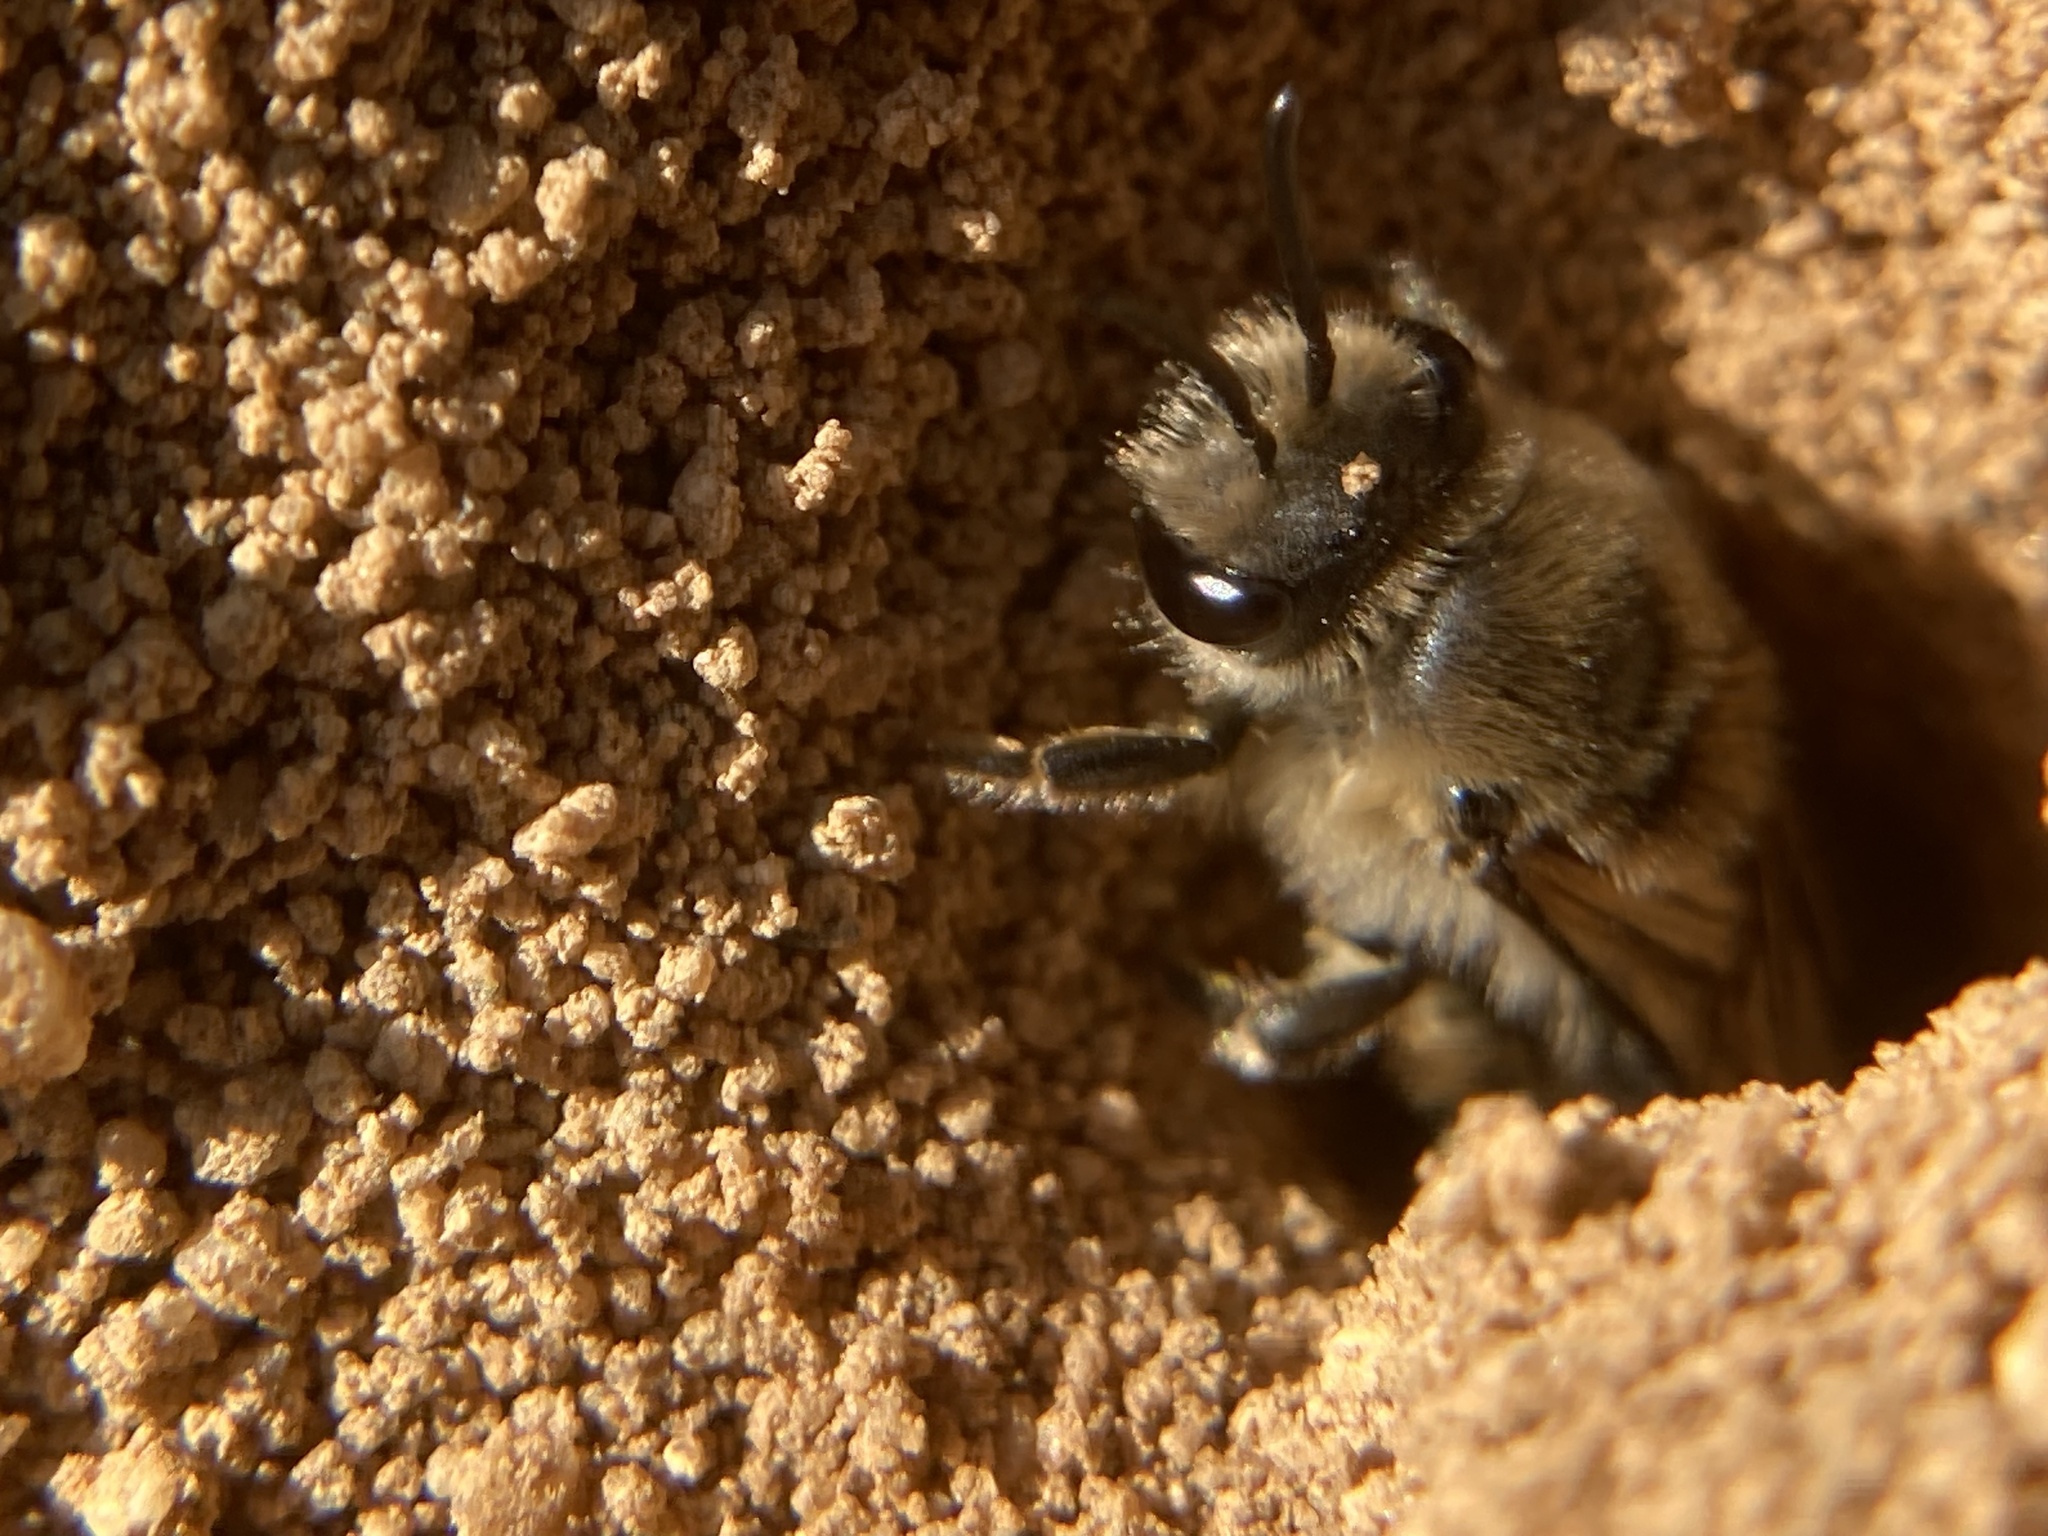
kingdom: Animalia
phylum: Arthropoda
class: Insecta
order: Hymenoptera
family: Colletidae
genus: Colletes
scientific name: Colletes inaequalis
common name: Unequal cellophane bee
